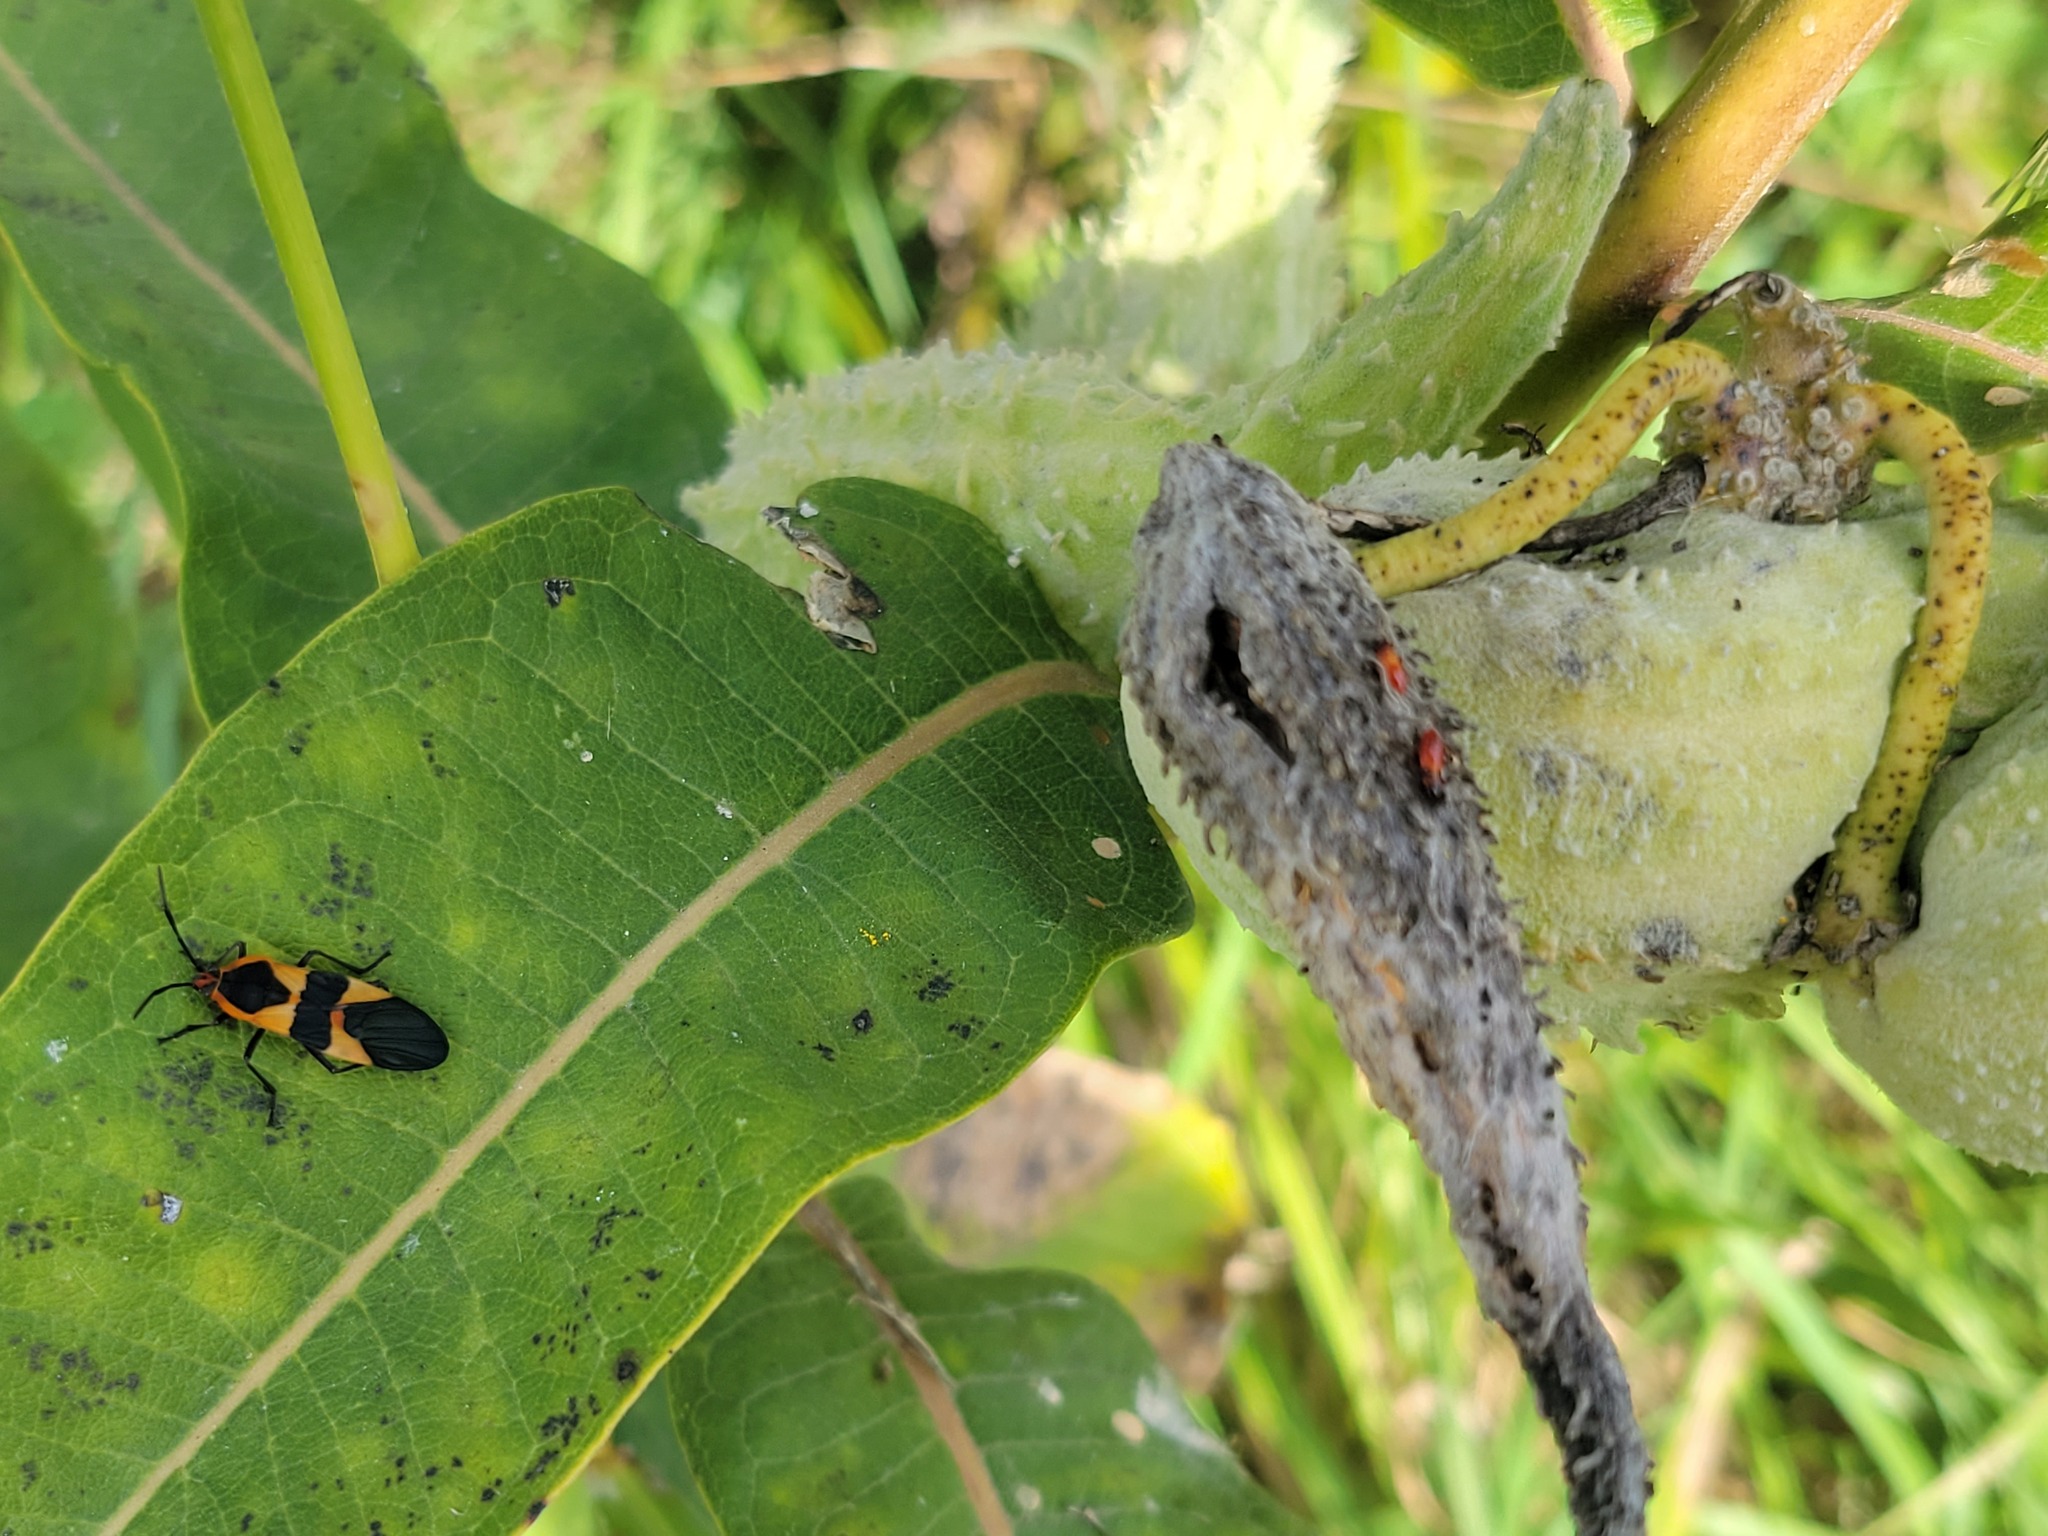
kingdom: Animalia
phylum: Arthropoda
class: Insecta
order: Hemiptera
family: Lygaeidae
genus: Oncopeltus
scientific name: Oncopeltus fasciatus
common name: Large milkweed bug
